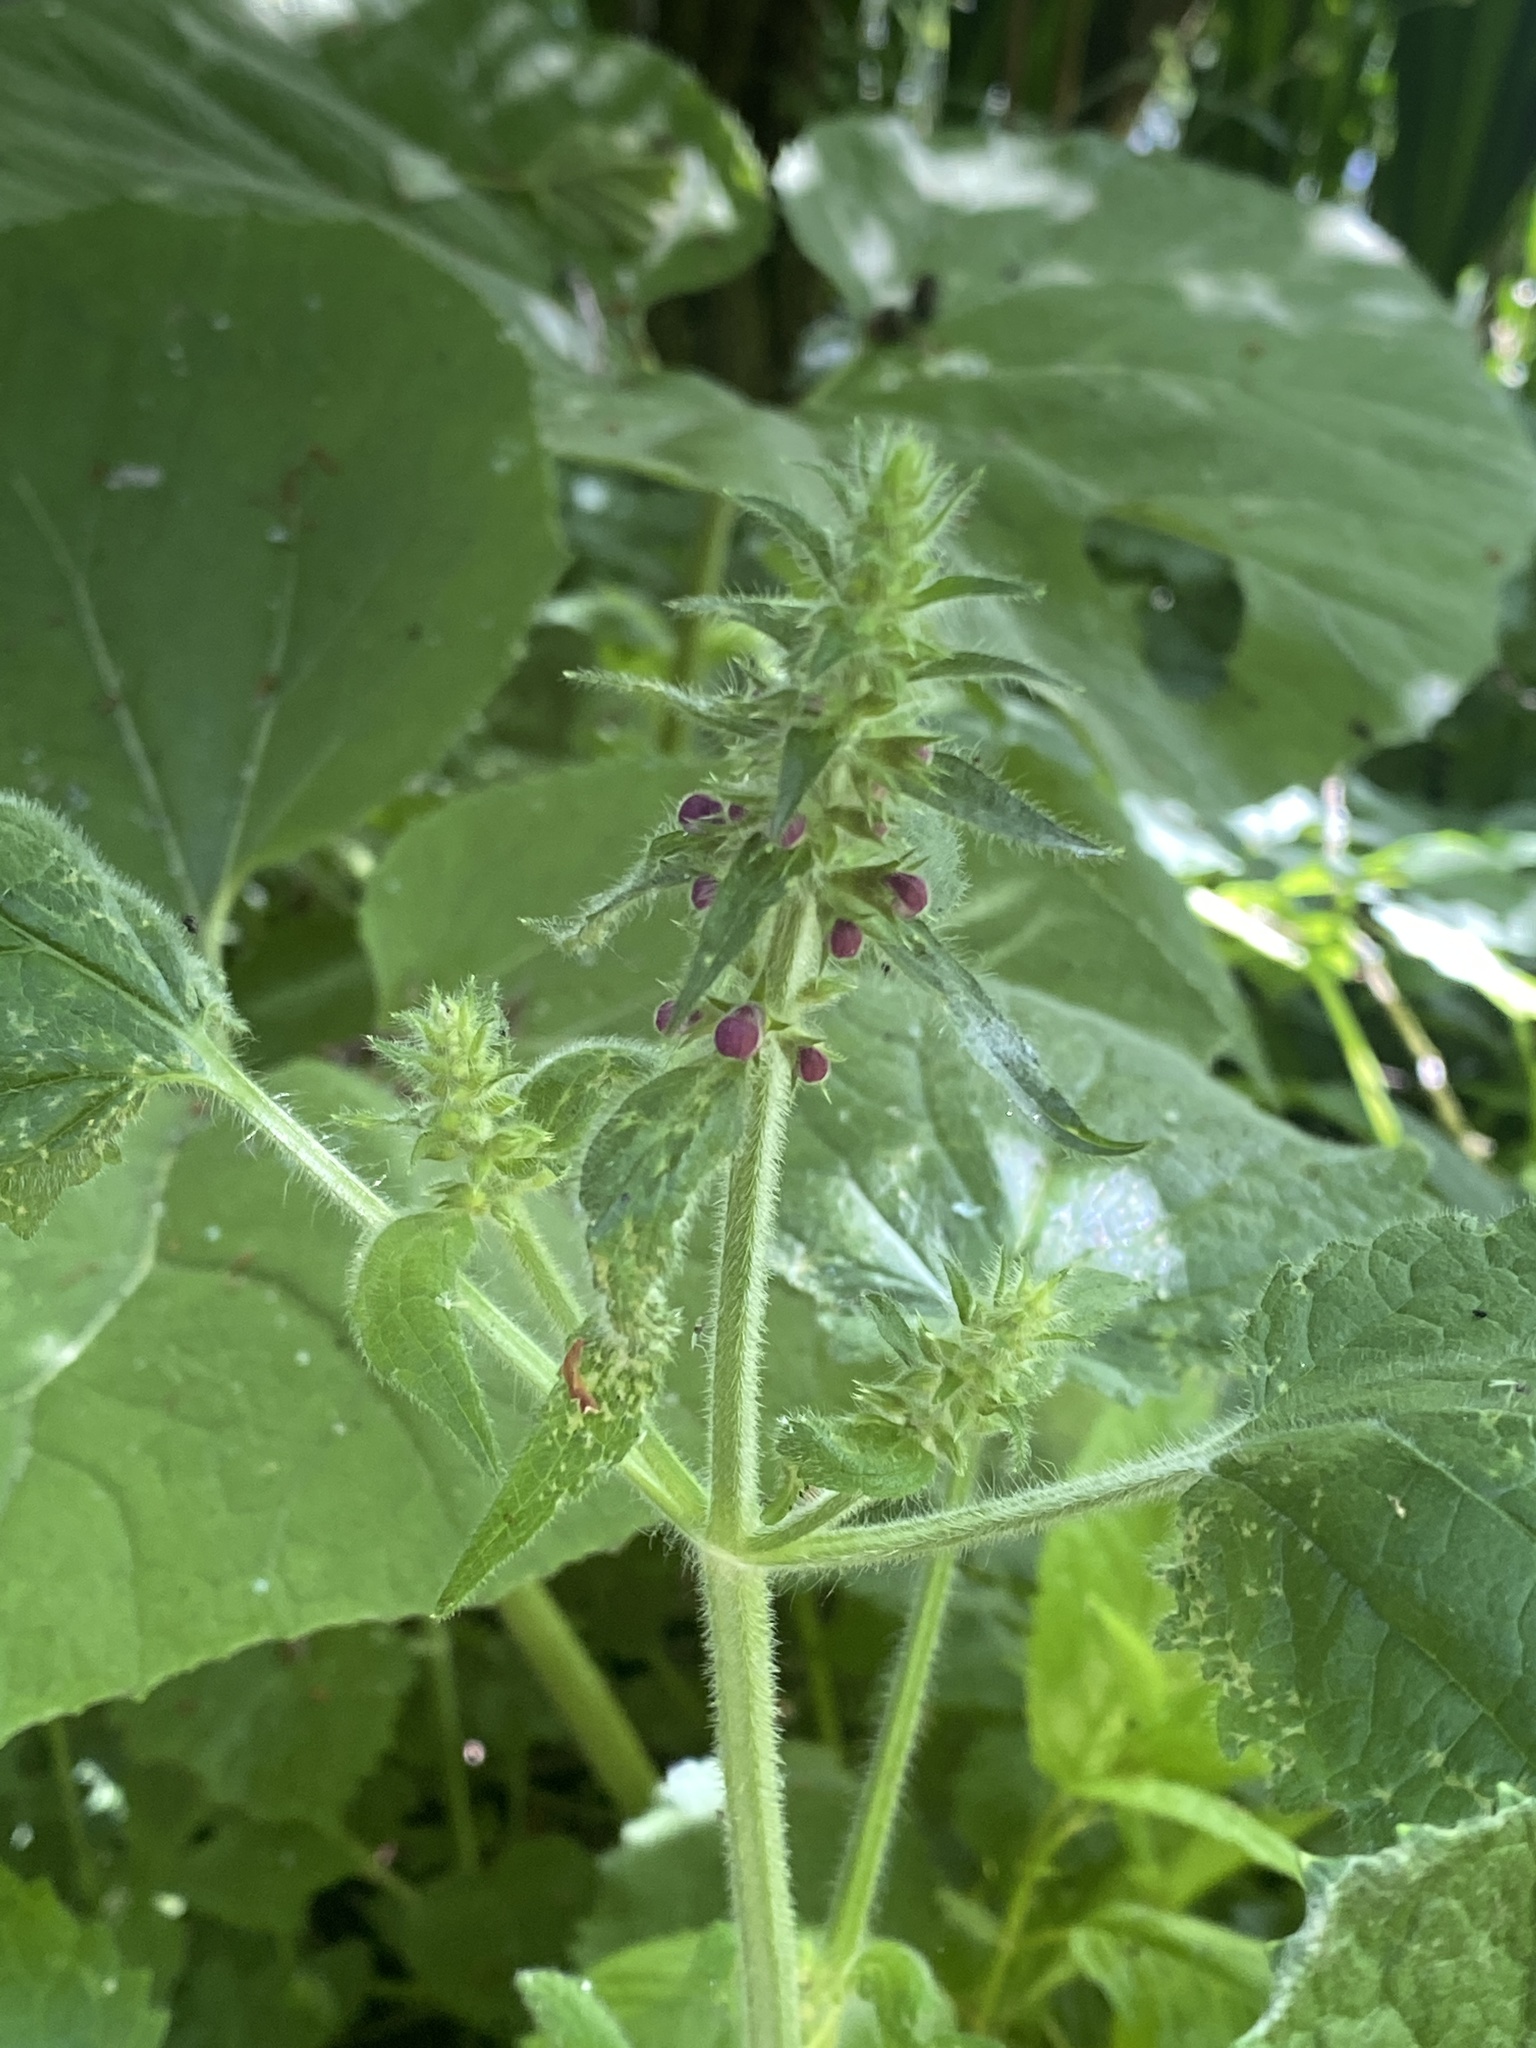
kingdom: Plantae
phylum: Tracheophyta
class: Magnoliopsida
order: Lamiales
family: Lamiaceae
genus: Stachys
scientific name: Stachys sylvatica
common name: Hedge woundwort
